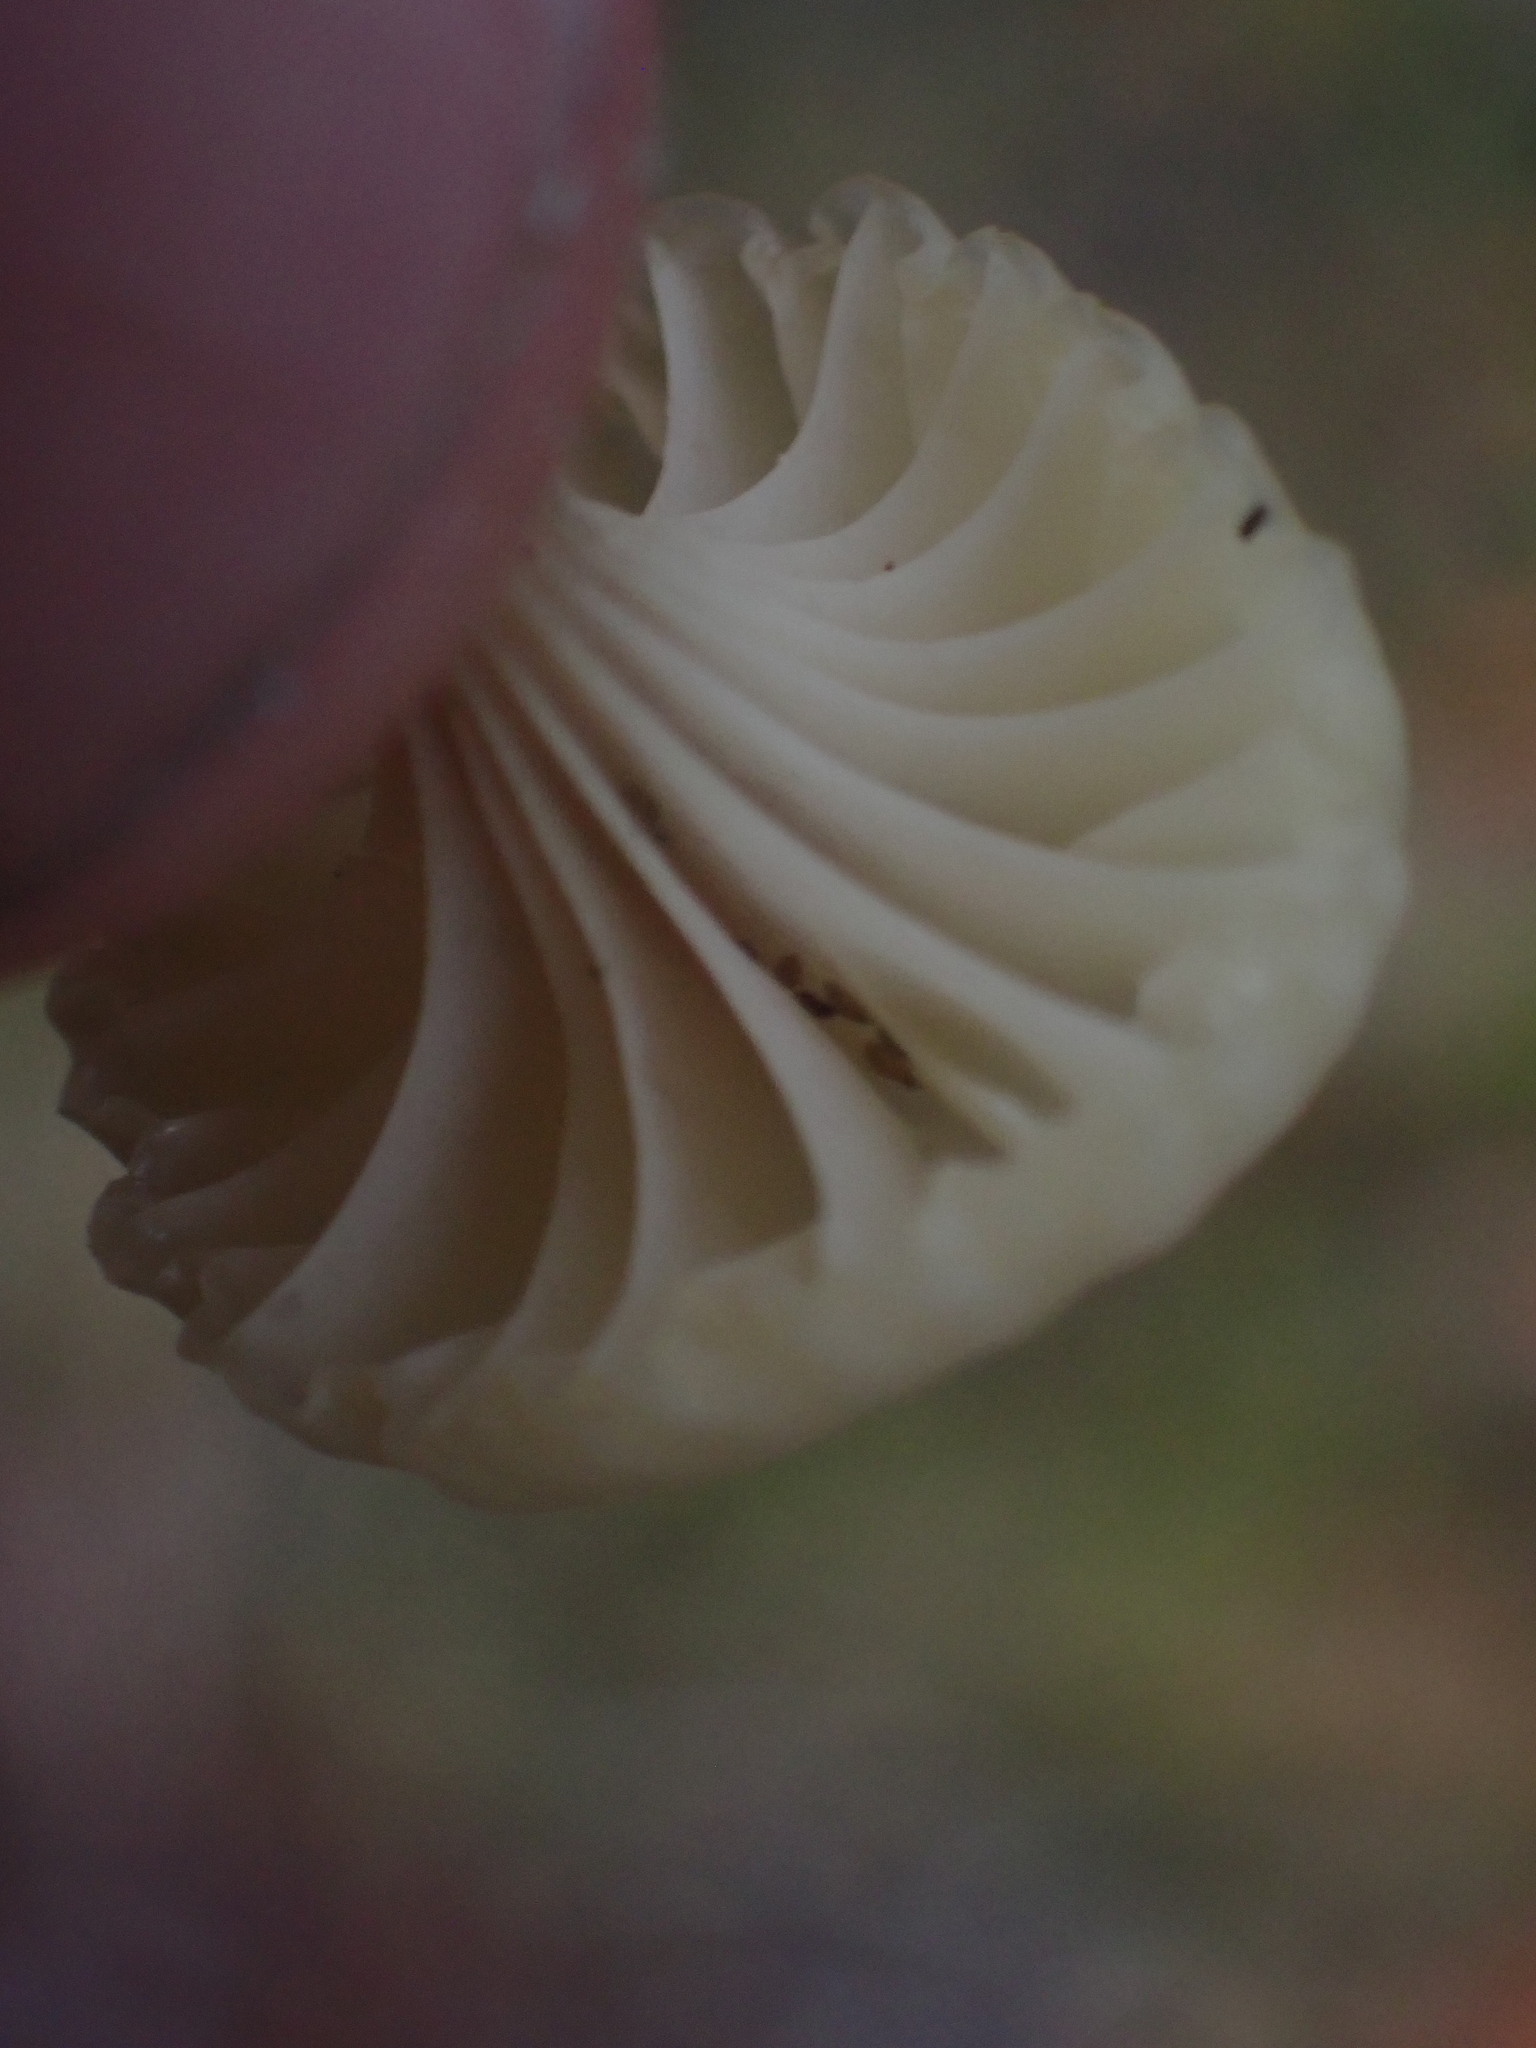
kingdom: Fungi
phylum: Basidiomycota
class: Agaricomycetes
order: Agaricales
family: Hygrophoraceae
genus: Lichenomphalia
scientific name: Lichenomphalia
